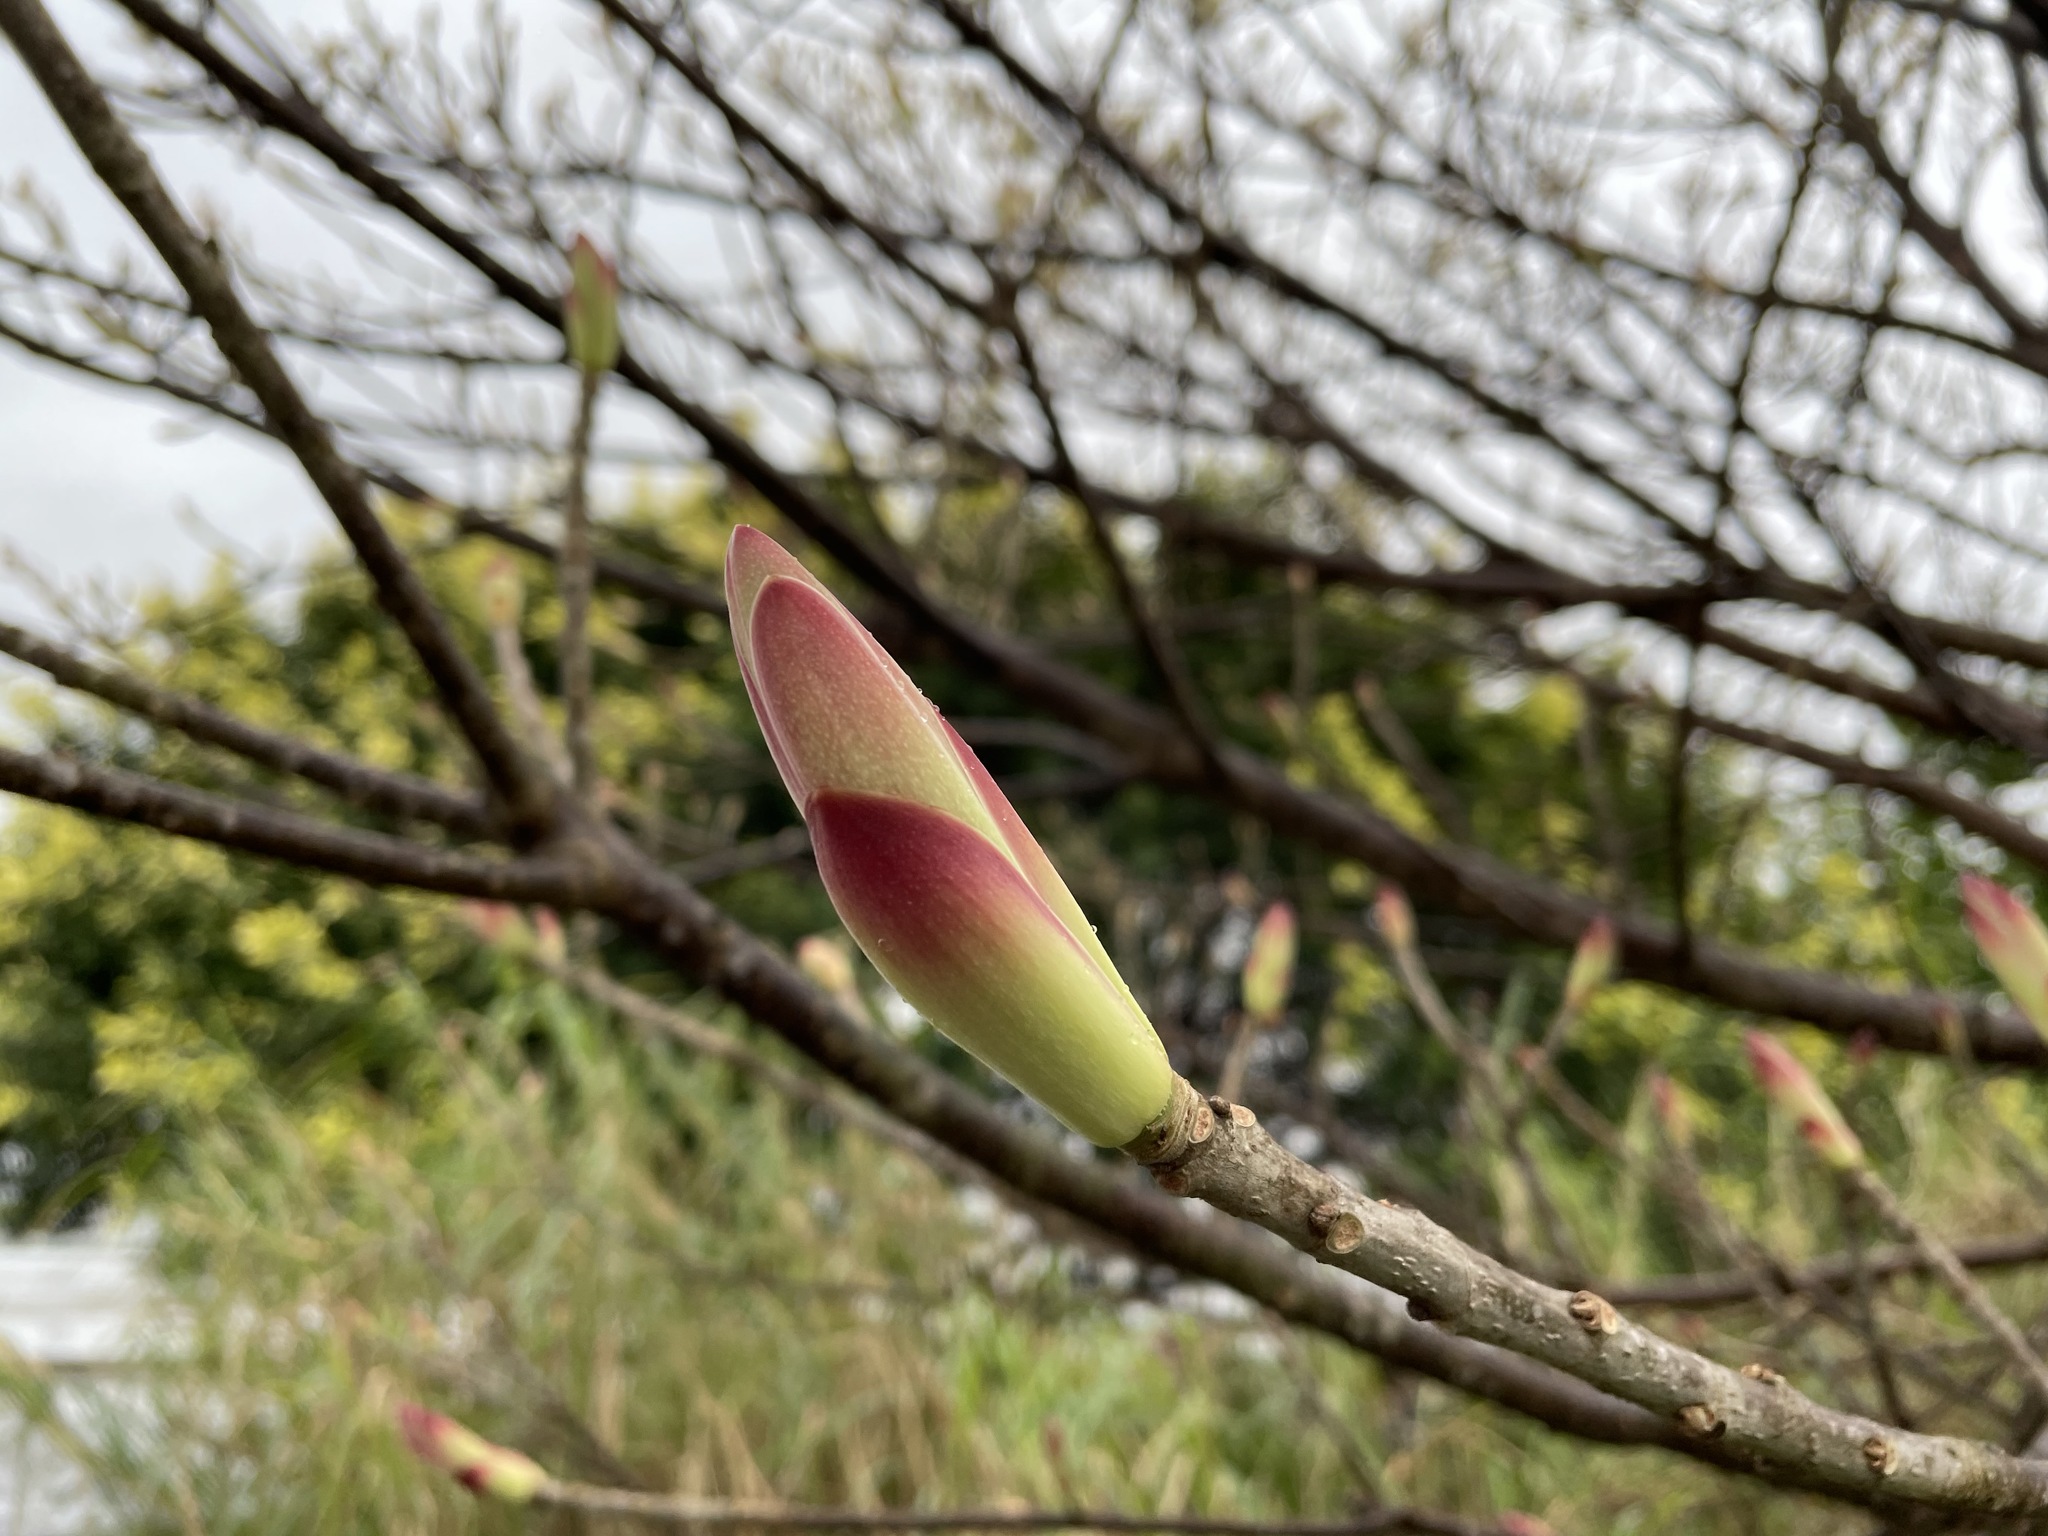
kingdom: Plantae
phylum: Tracheophyta
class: Magnoliopsida
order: Rosales
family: Moraceae
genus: Ficus
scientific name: Ficus subpisocarpa
